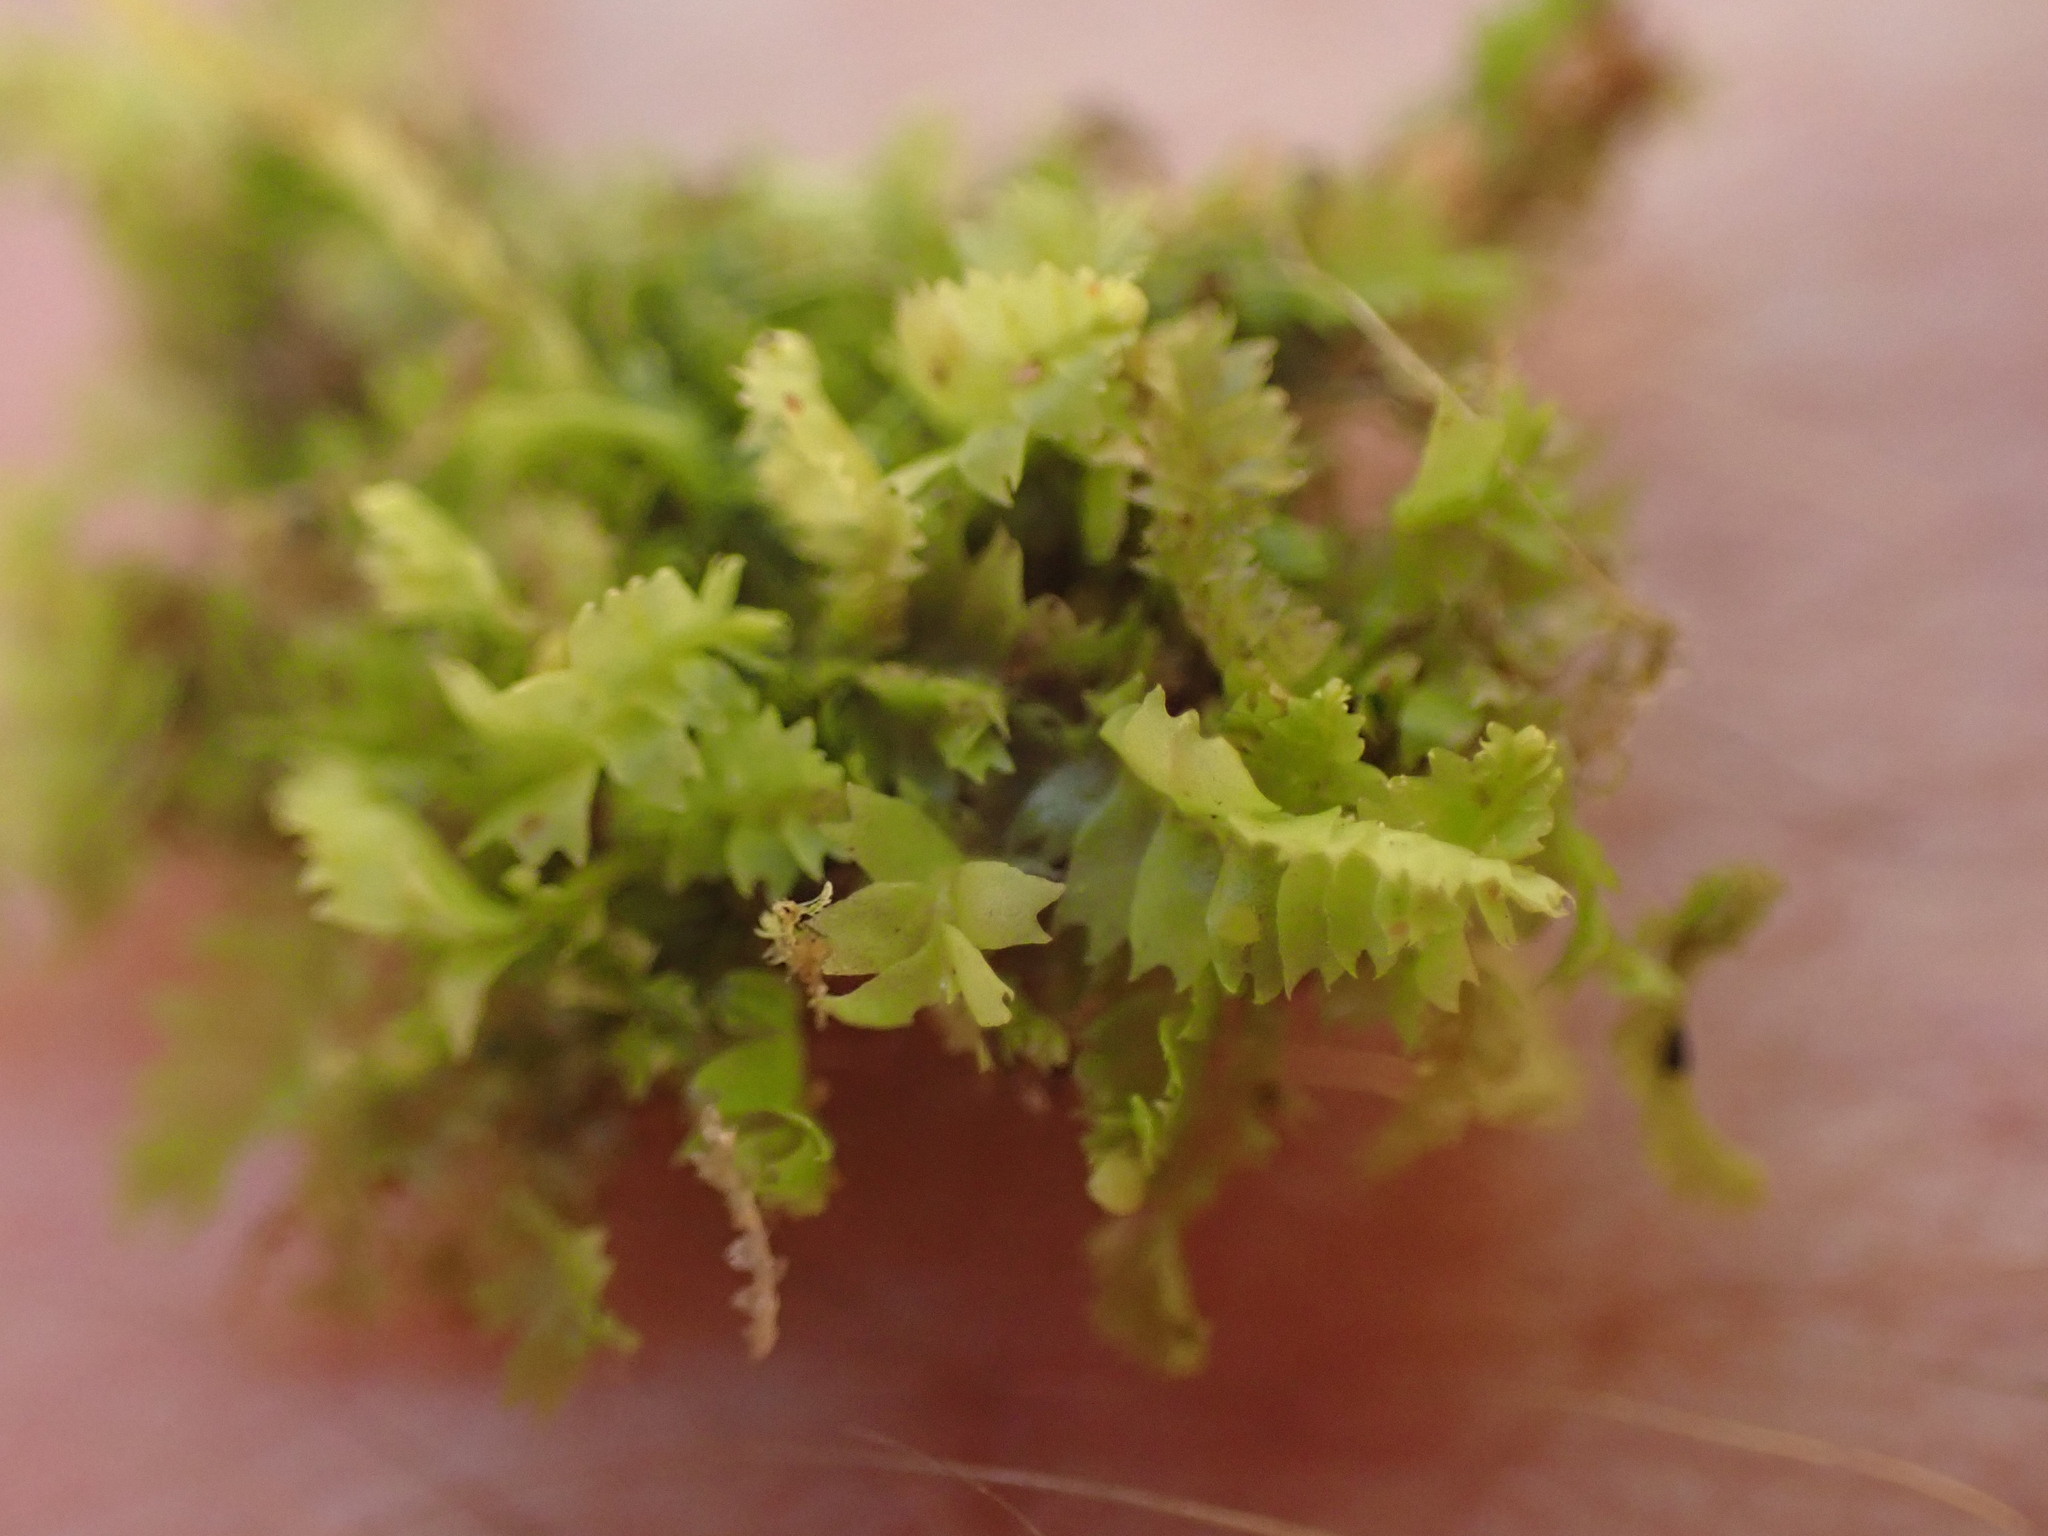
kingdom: Plantae
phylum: Marchantiophyta
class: Jungermanniopsida
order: Jungermanniales
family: Geocalycaceae
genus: Geocalyx
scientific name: Geocalyx graveolens
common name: Turps pouchwort
